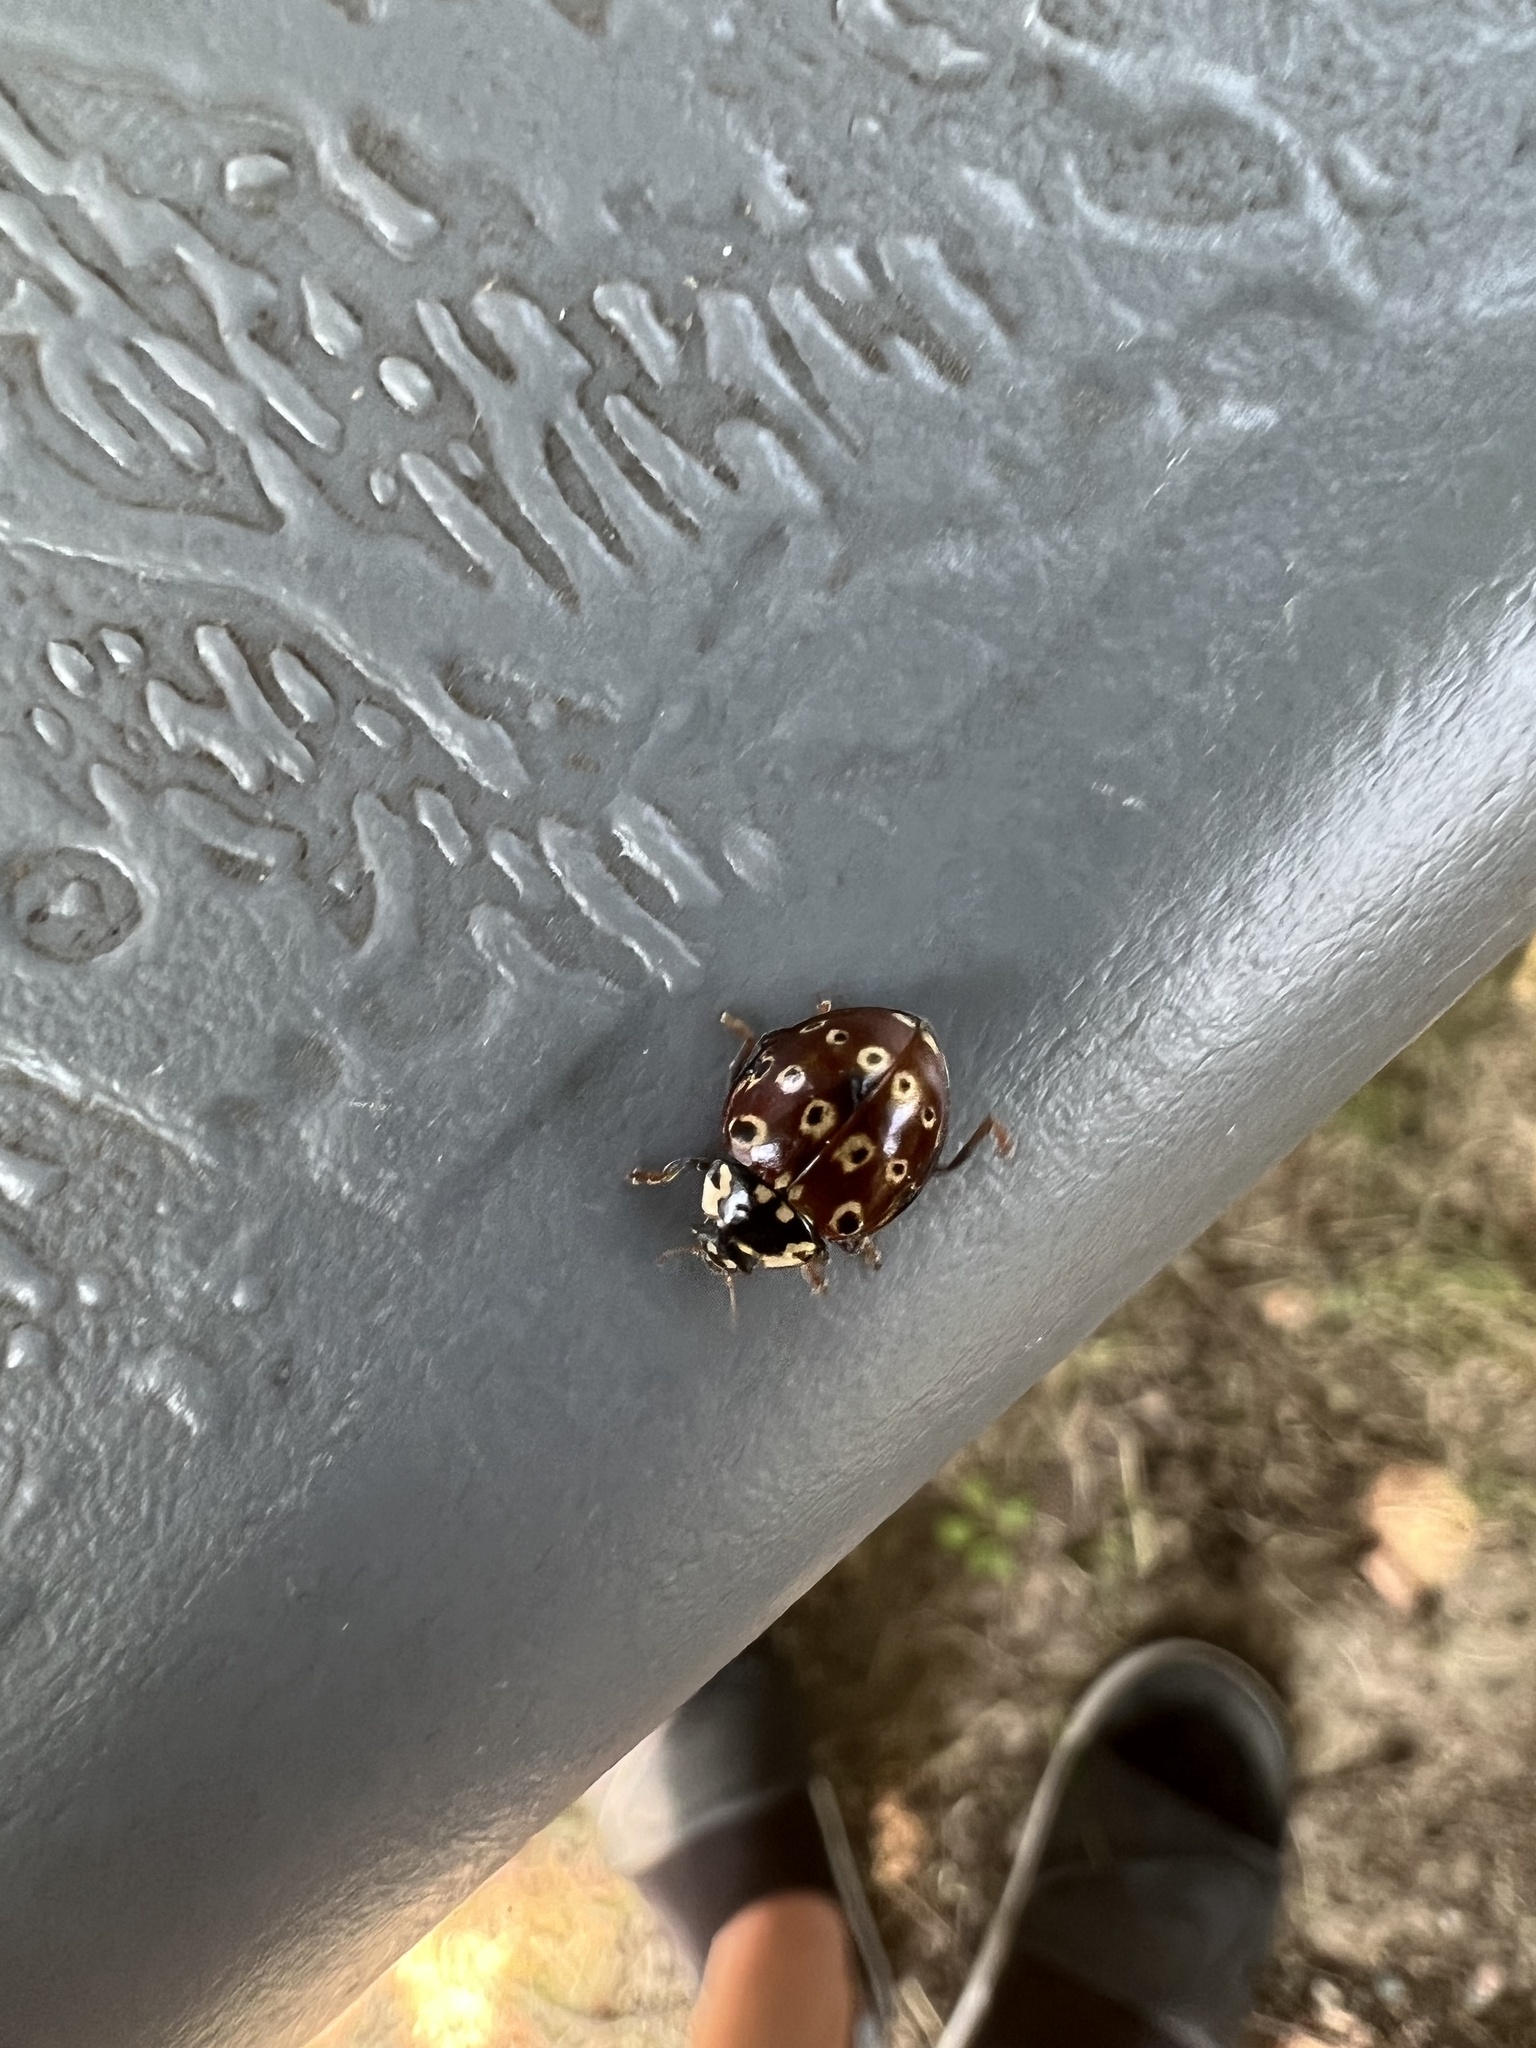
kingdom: Animalia
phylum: Arthropoda
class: Insecta
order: Coleoptera
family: Coccinellidae
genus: Anatis
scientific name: Anatis mali
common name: Eye-spotted lady beetle
